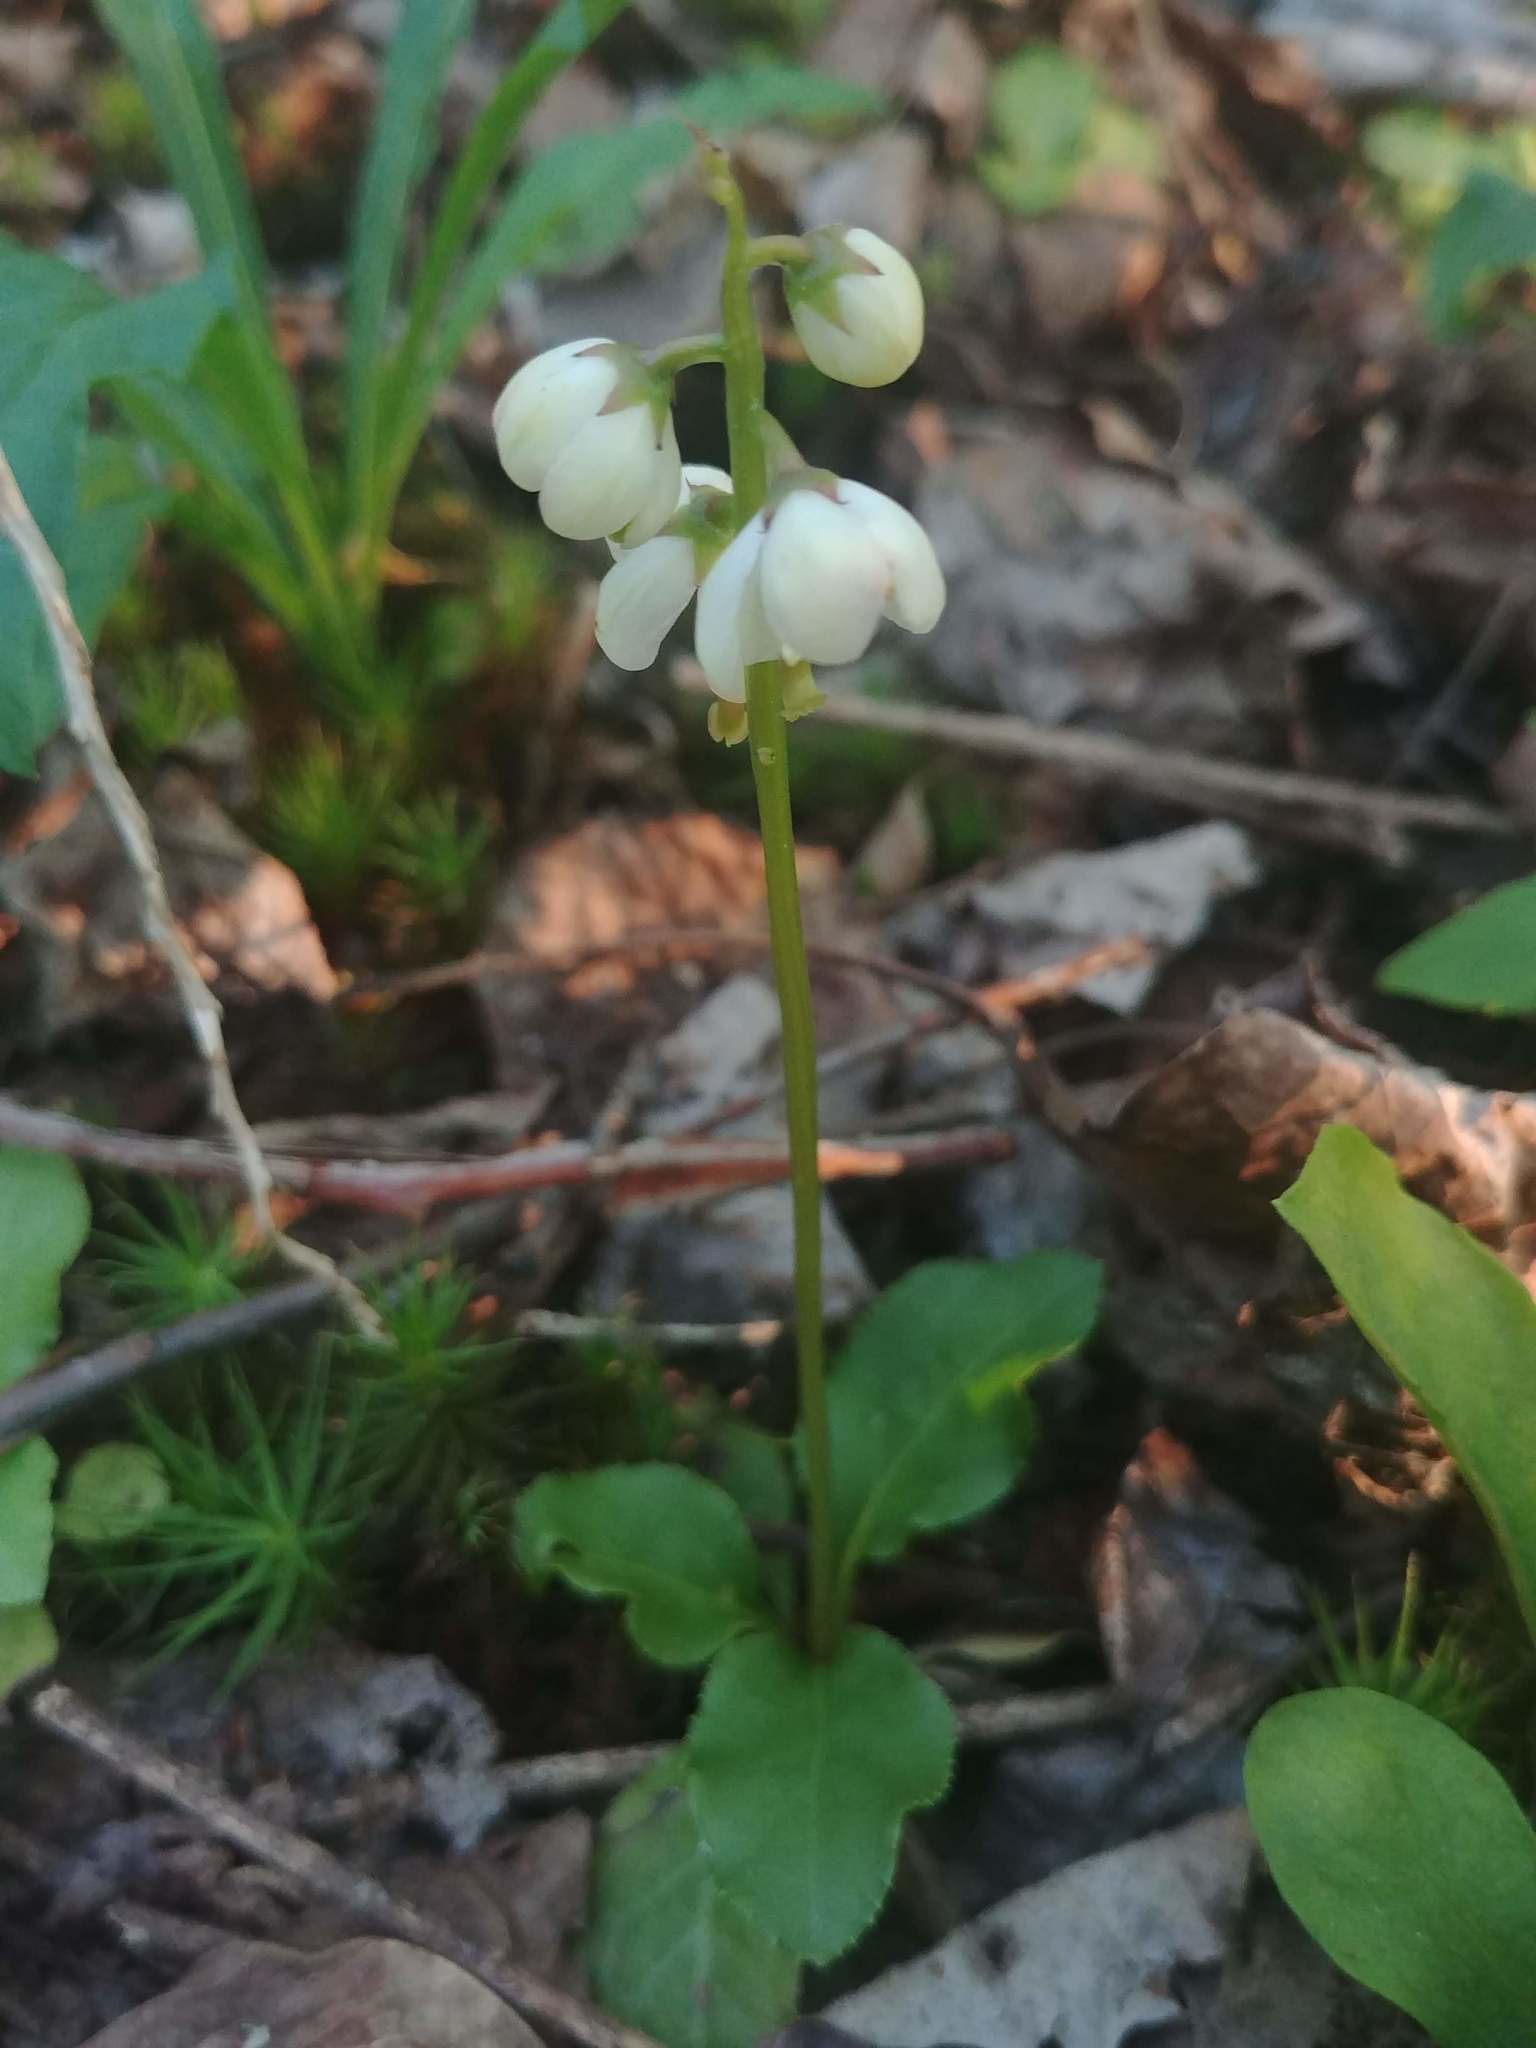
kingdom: Plantae
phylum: Tracheophyta
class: Magnoliopsida
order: Ericales
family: Ericaceae
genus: Pyrola
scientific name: Pyrola elliptica
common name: Shinleaf
